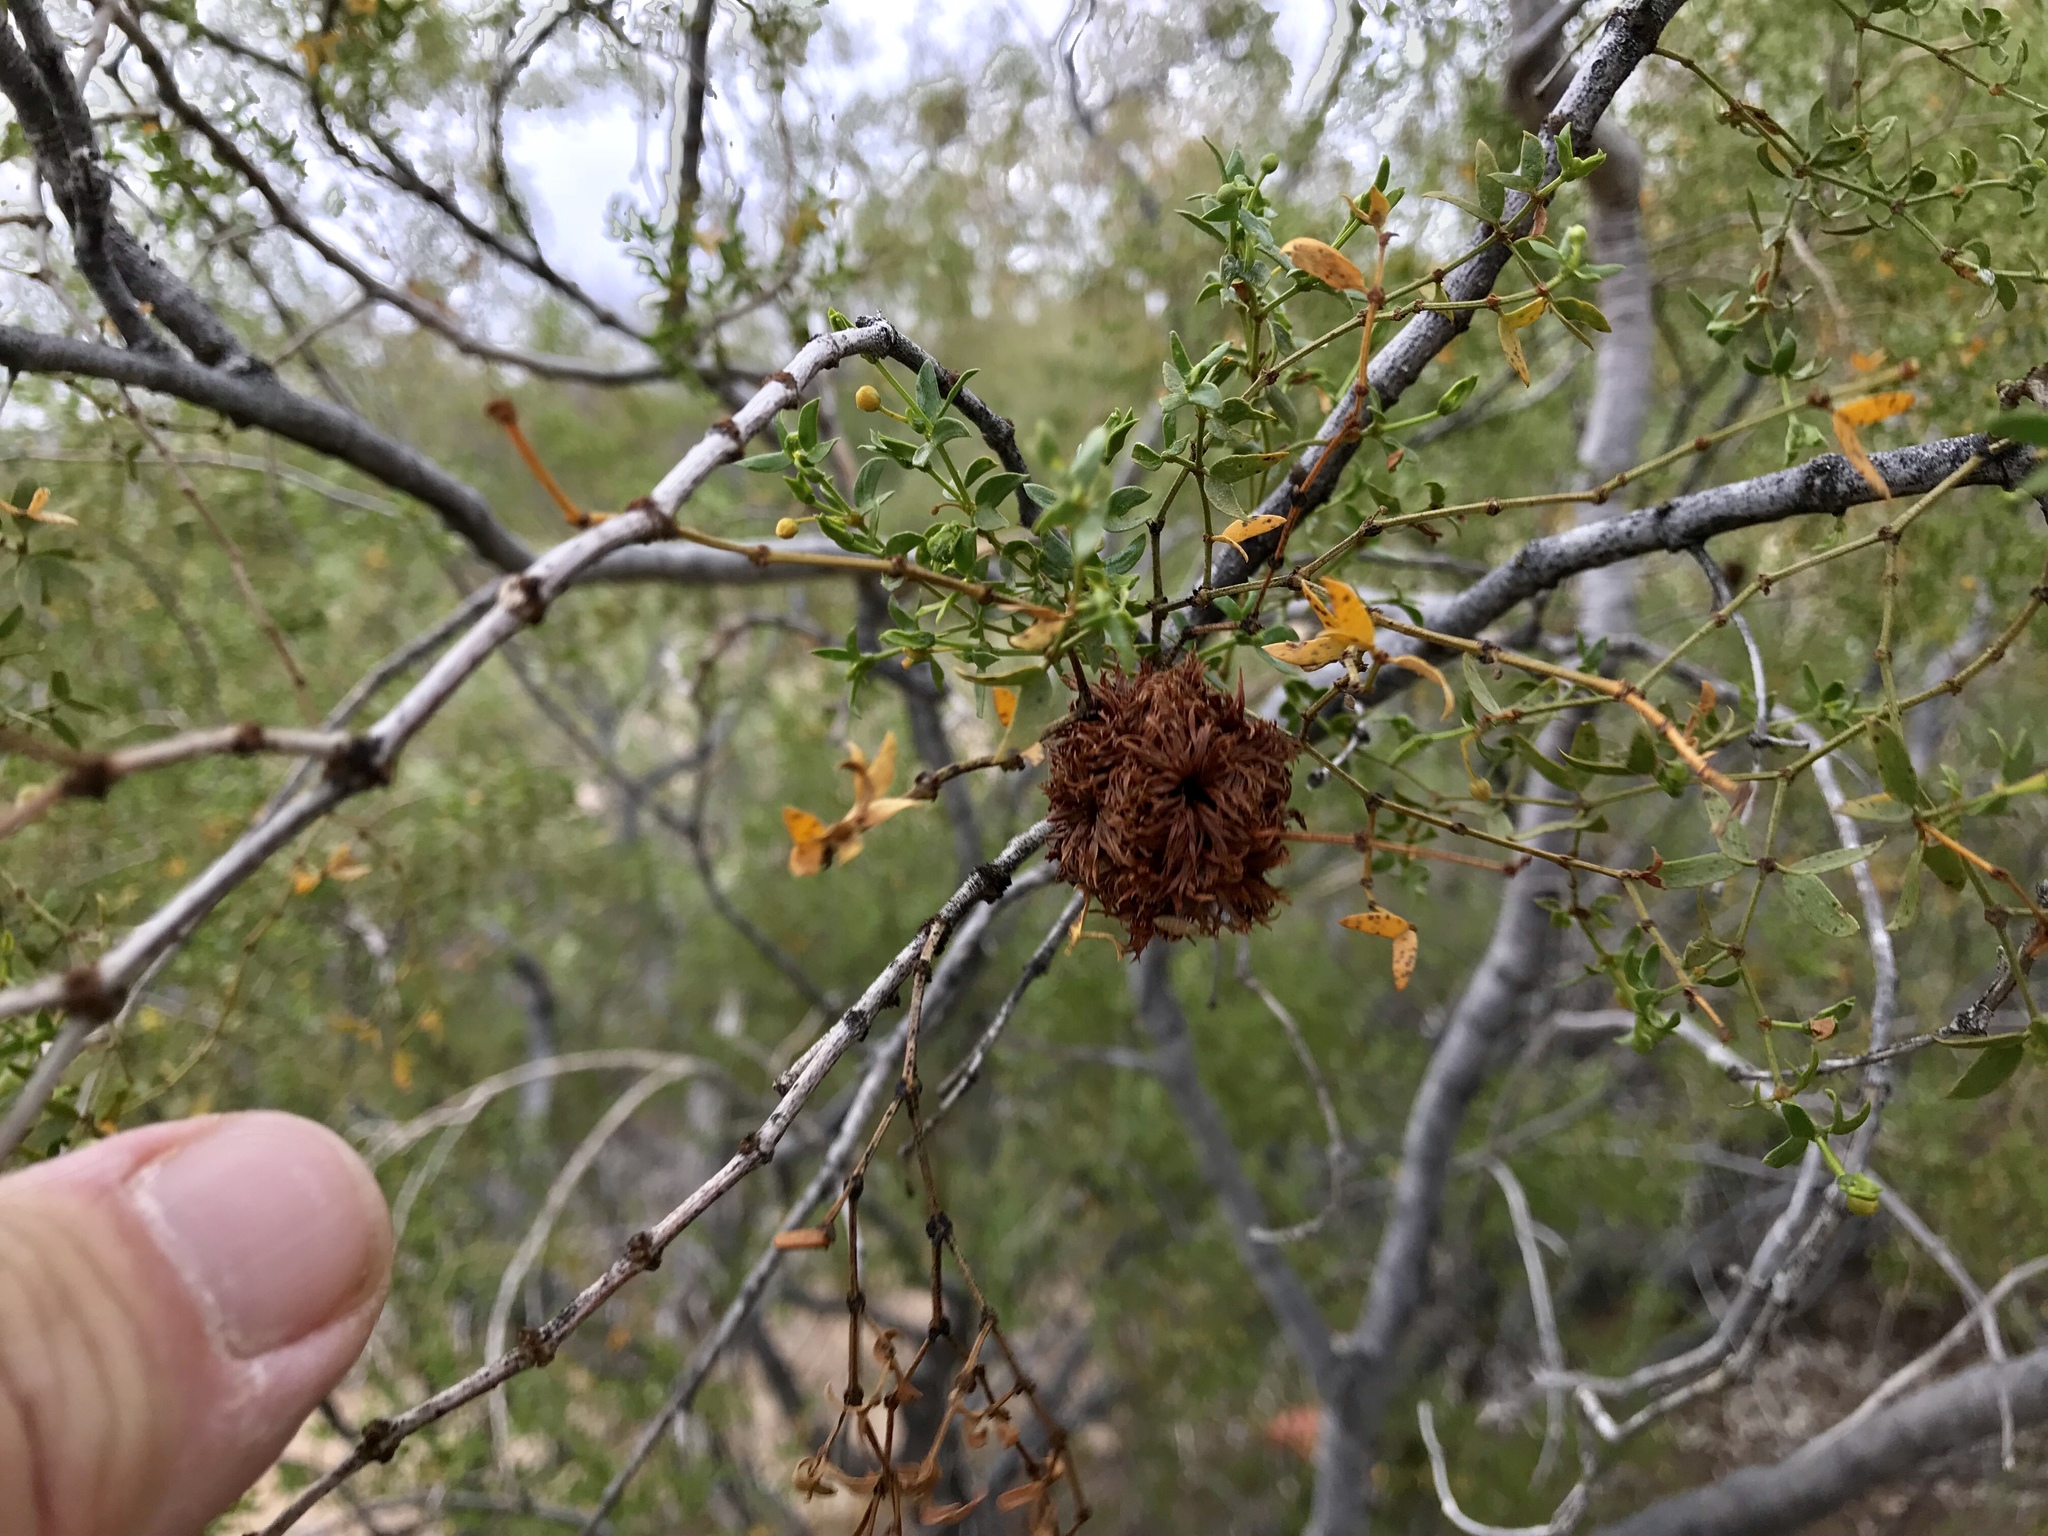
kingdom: Animalia
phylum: Arthropoda
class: Insecta
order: Diptera
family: Cecidomyiidae
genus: Asphondylia
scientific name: Asphondylia auripila
